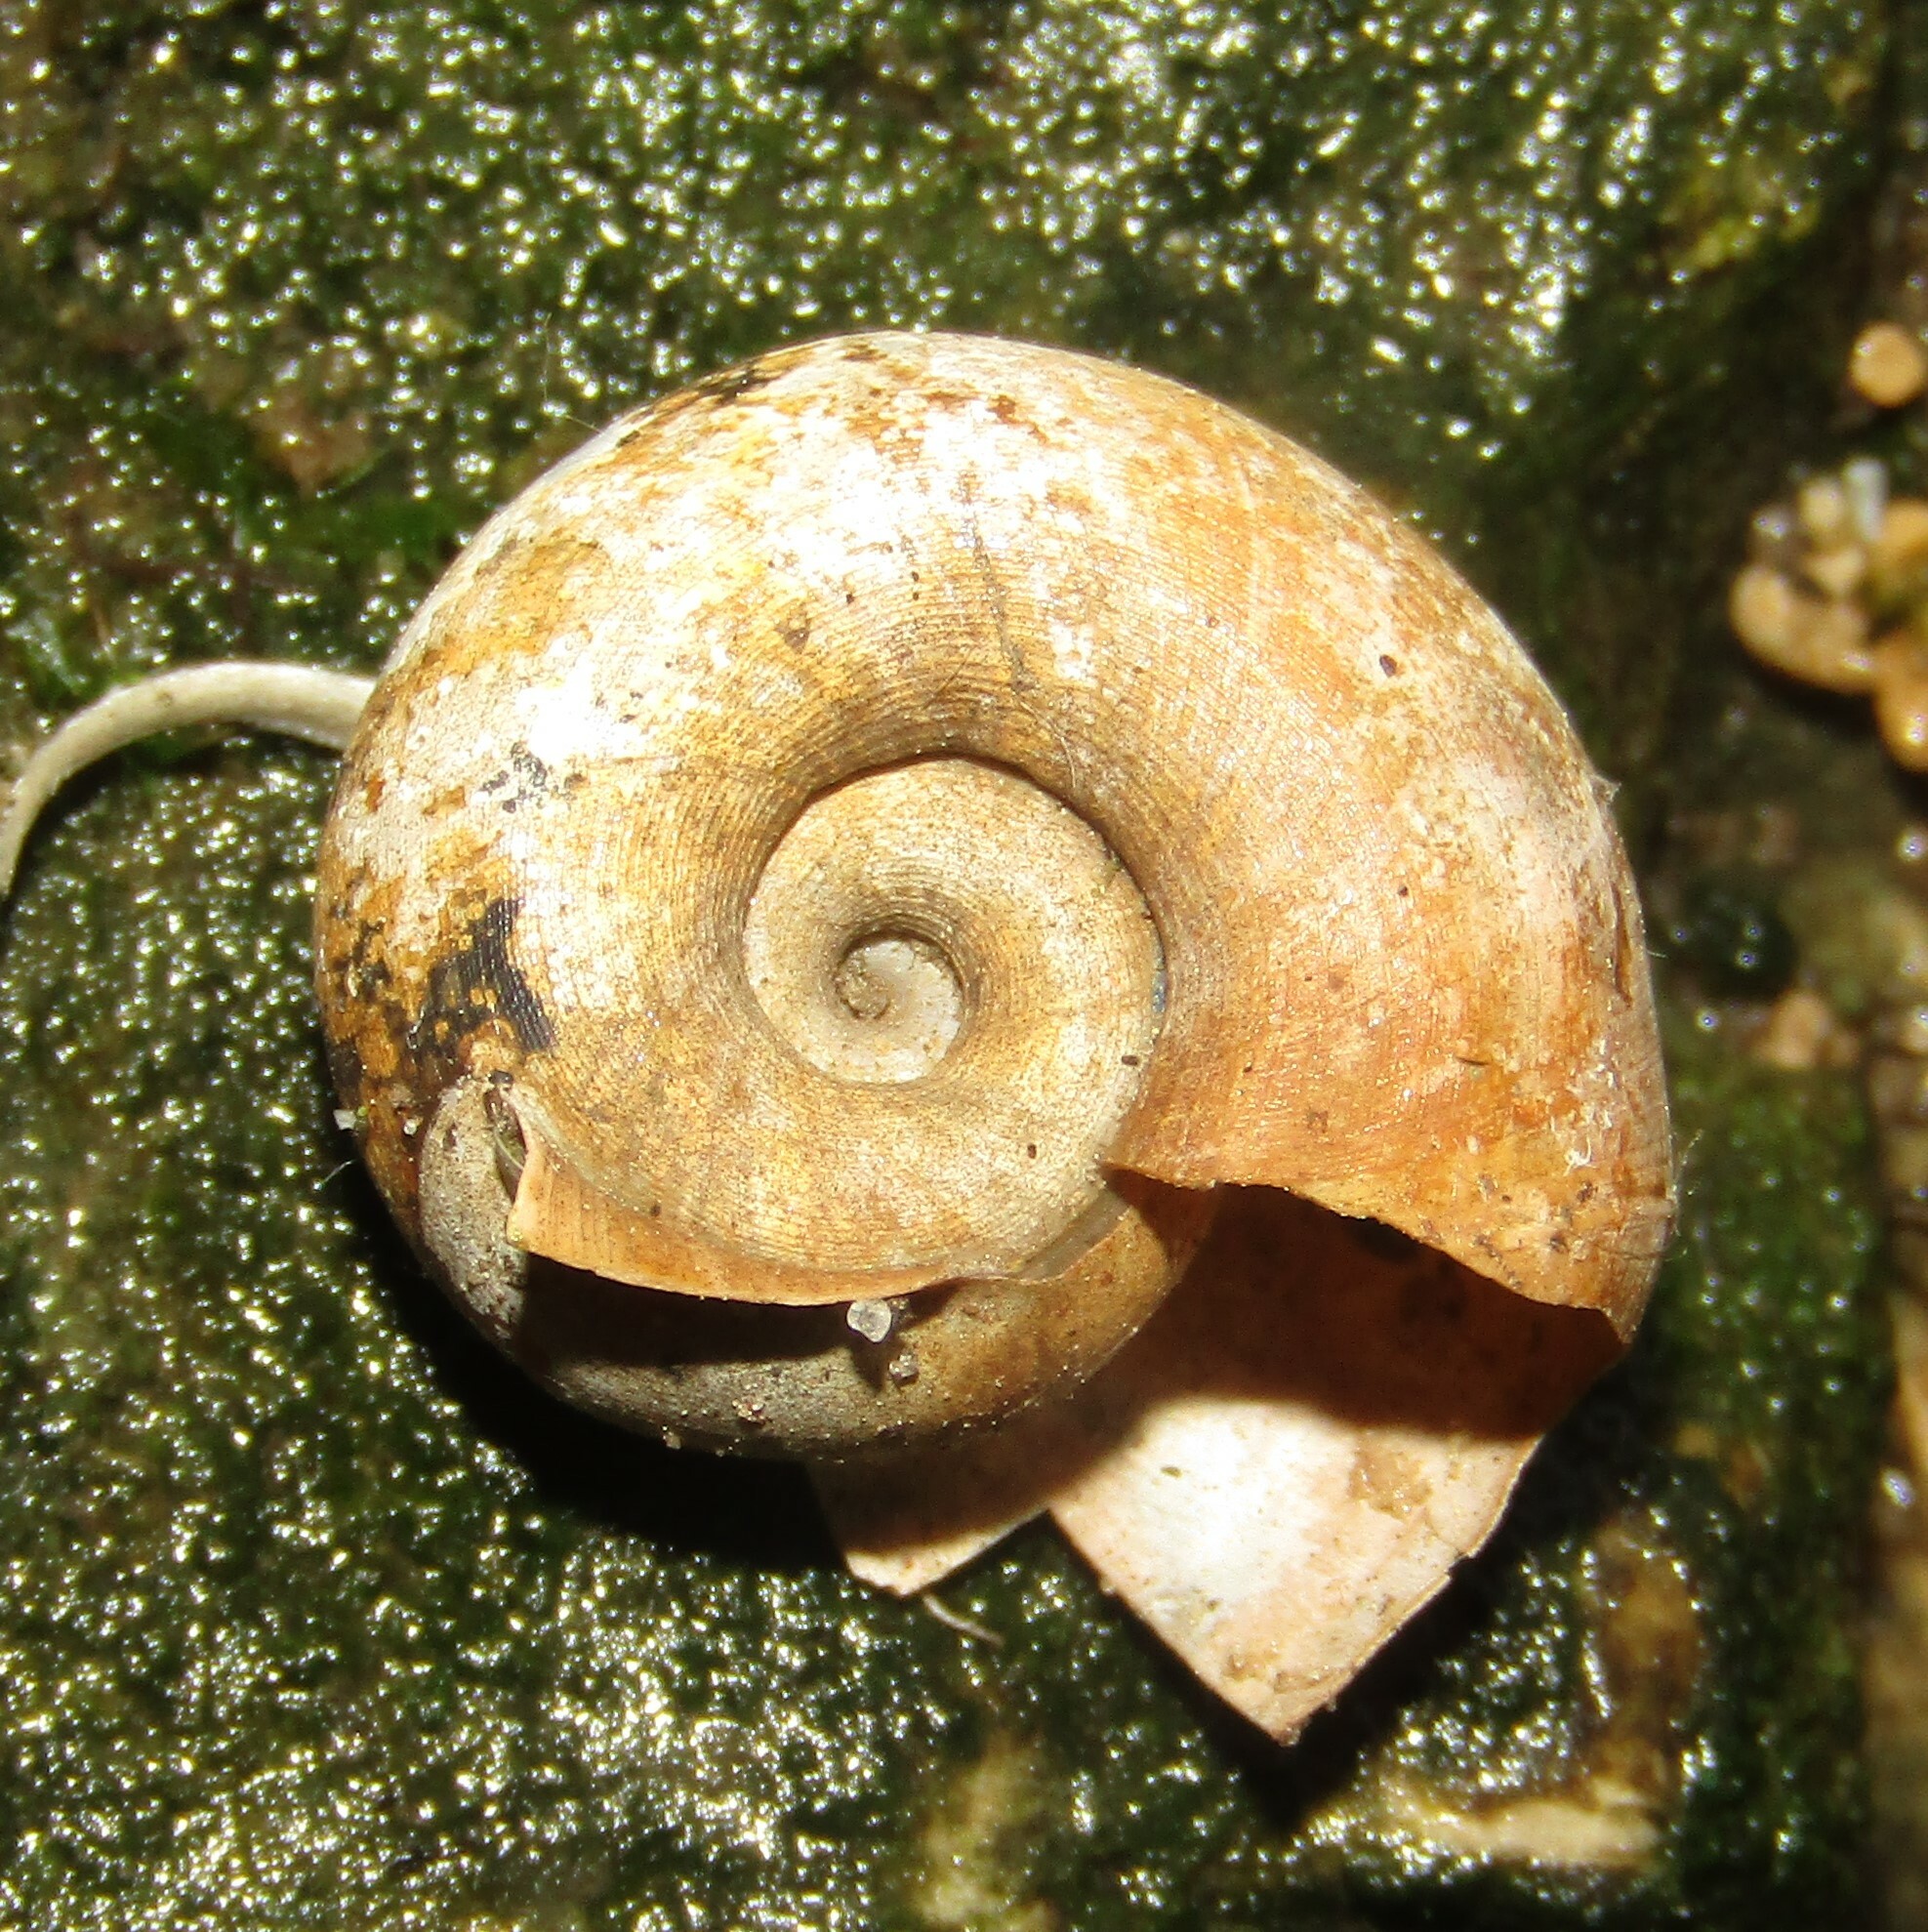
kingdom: Animalia
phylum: Mollusca
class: Gastropoda
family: Planorbidae
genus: Planorbarius
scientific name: Planorbarius corneus
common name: Great ramshorn
